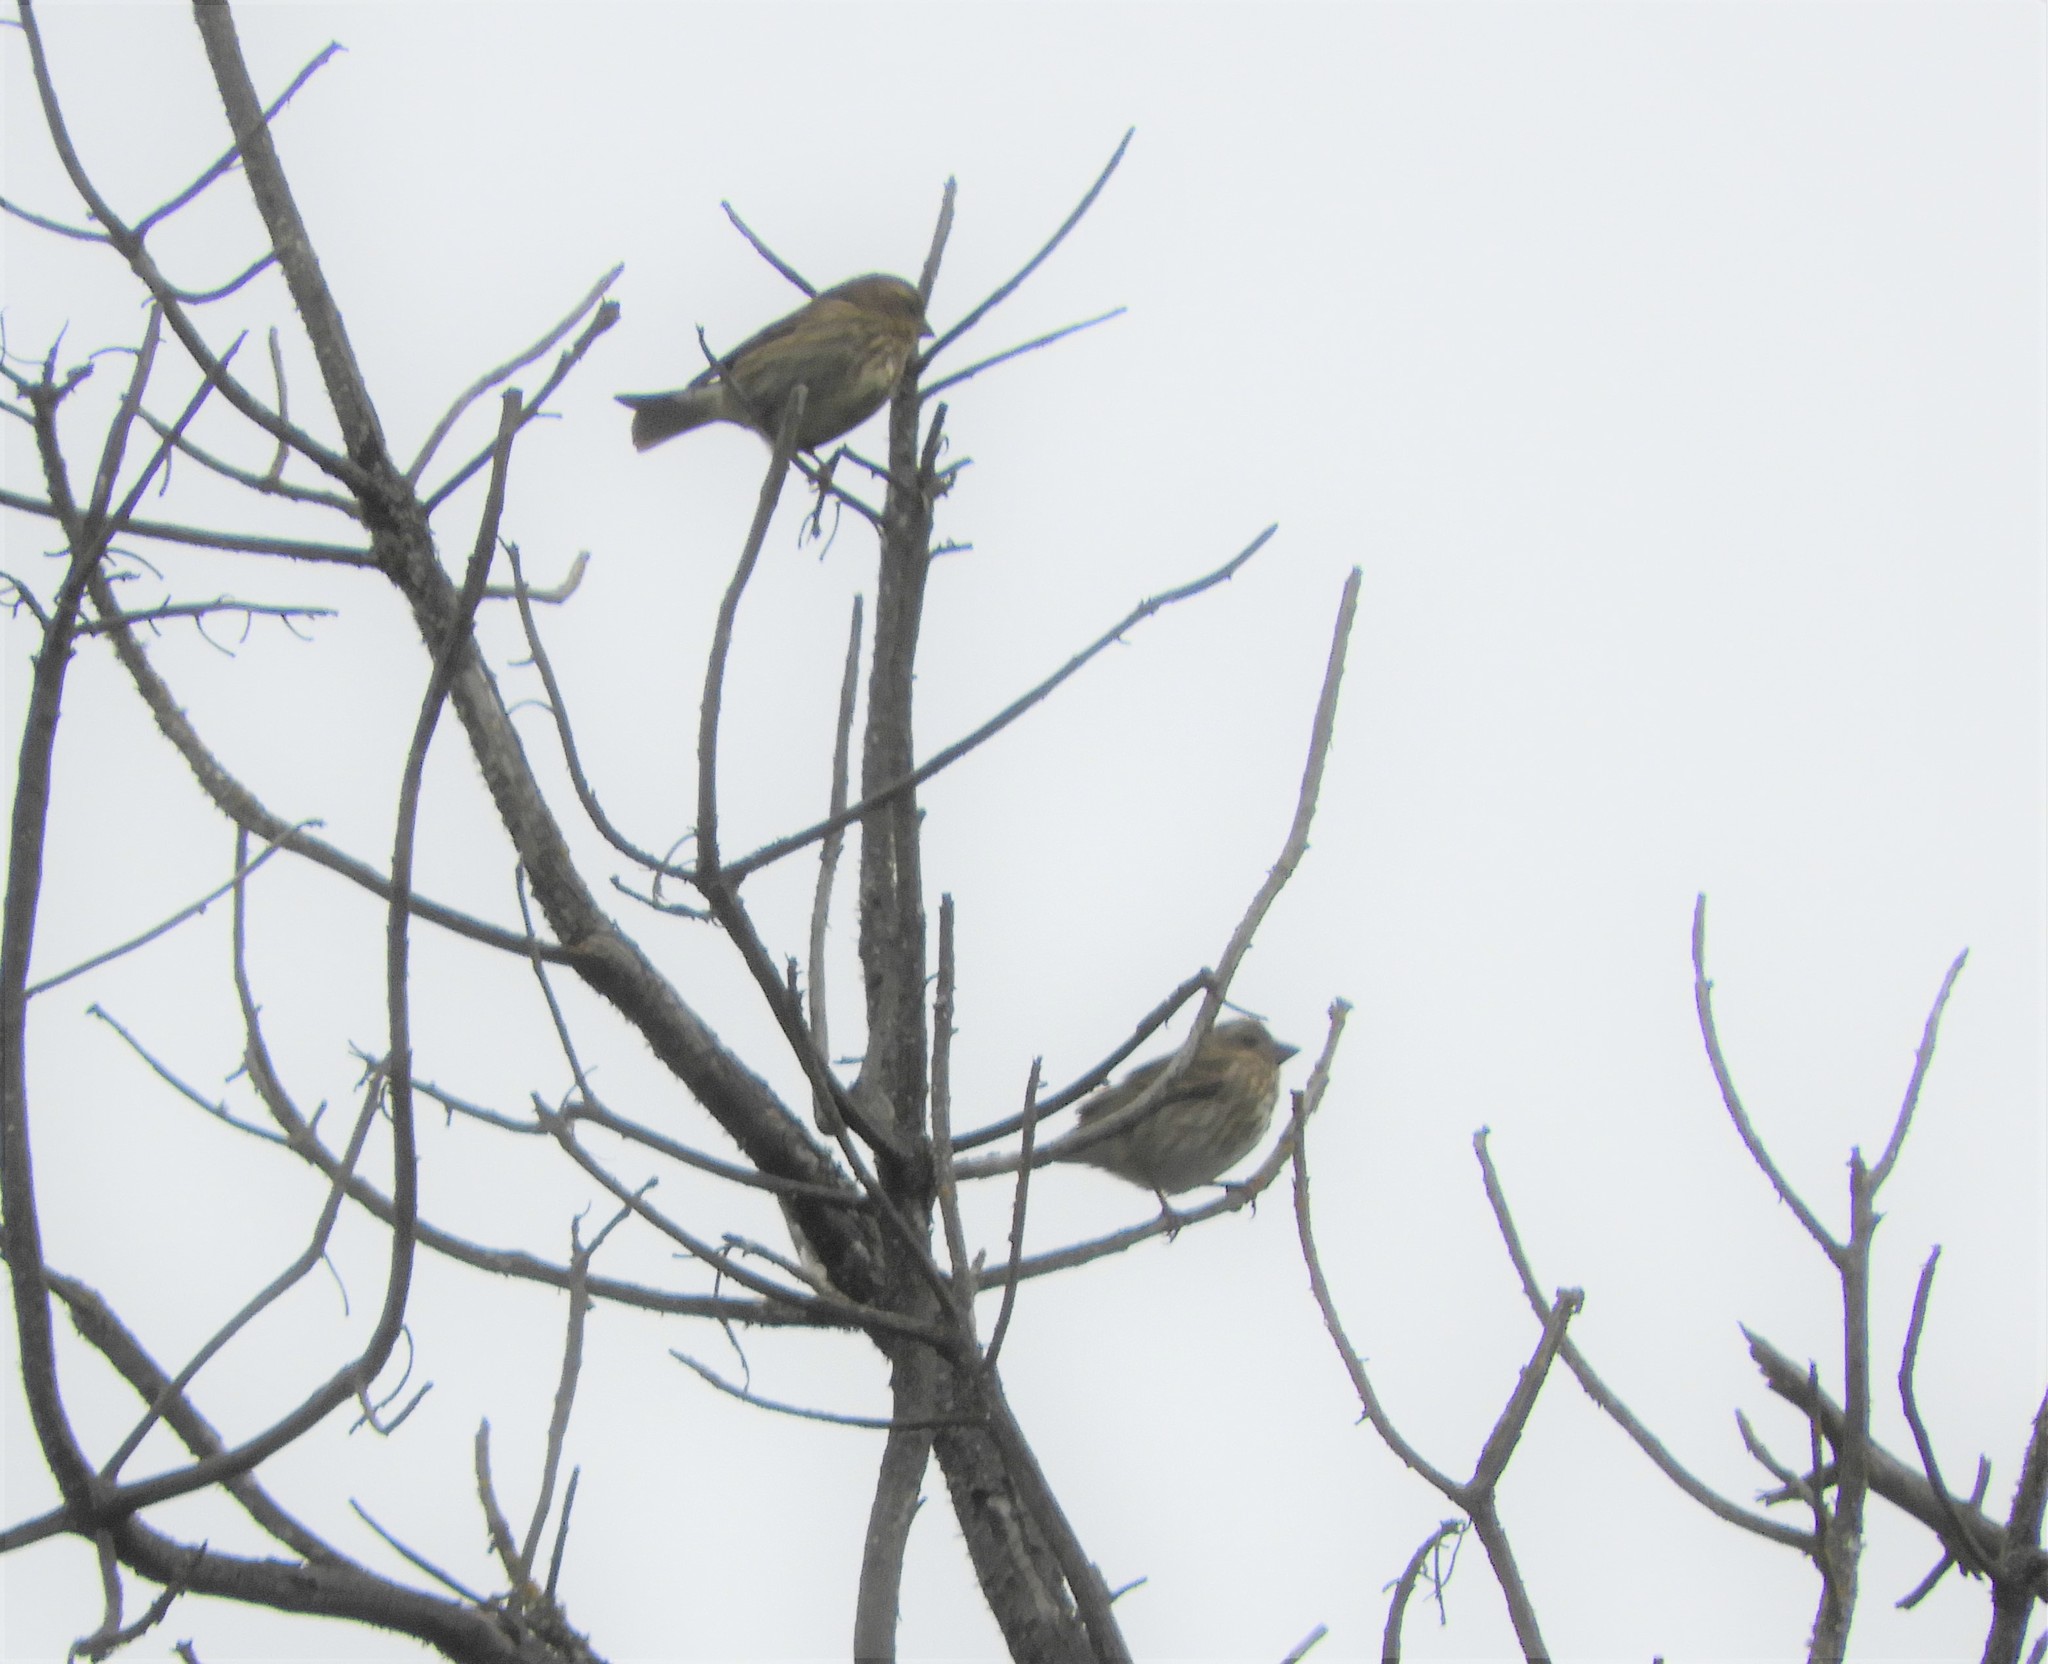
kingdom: Animalia
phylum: Chordata
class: Aves
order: Passeriformes
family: Fringillidae
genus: Haemorhous
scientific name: Haemorhous purpureus
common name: Purple finch
